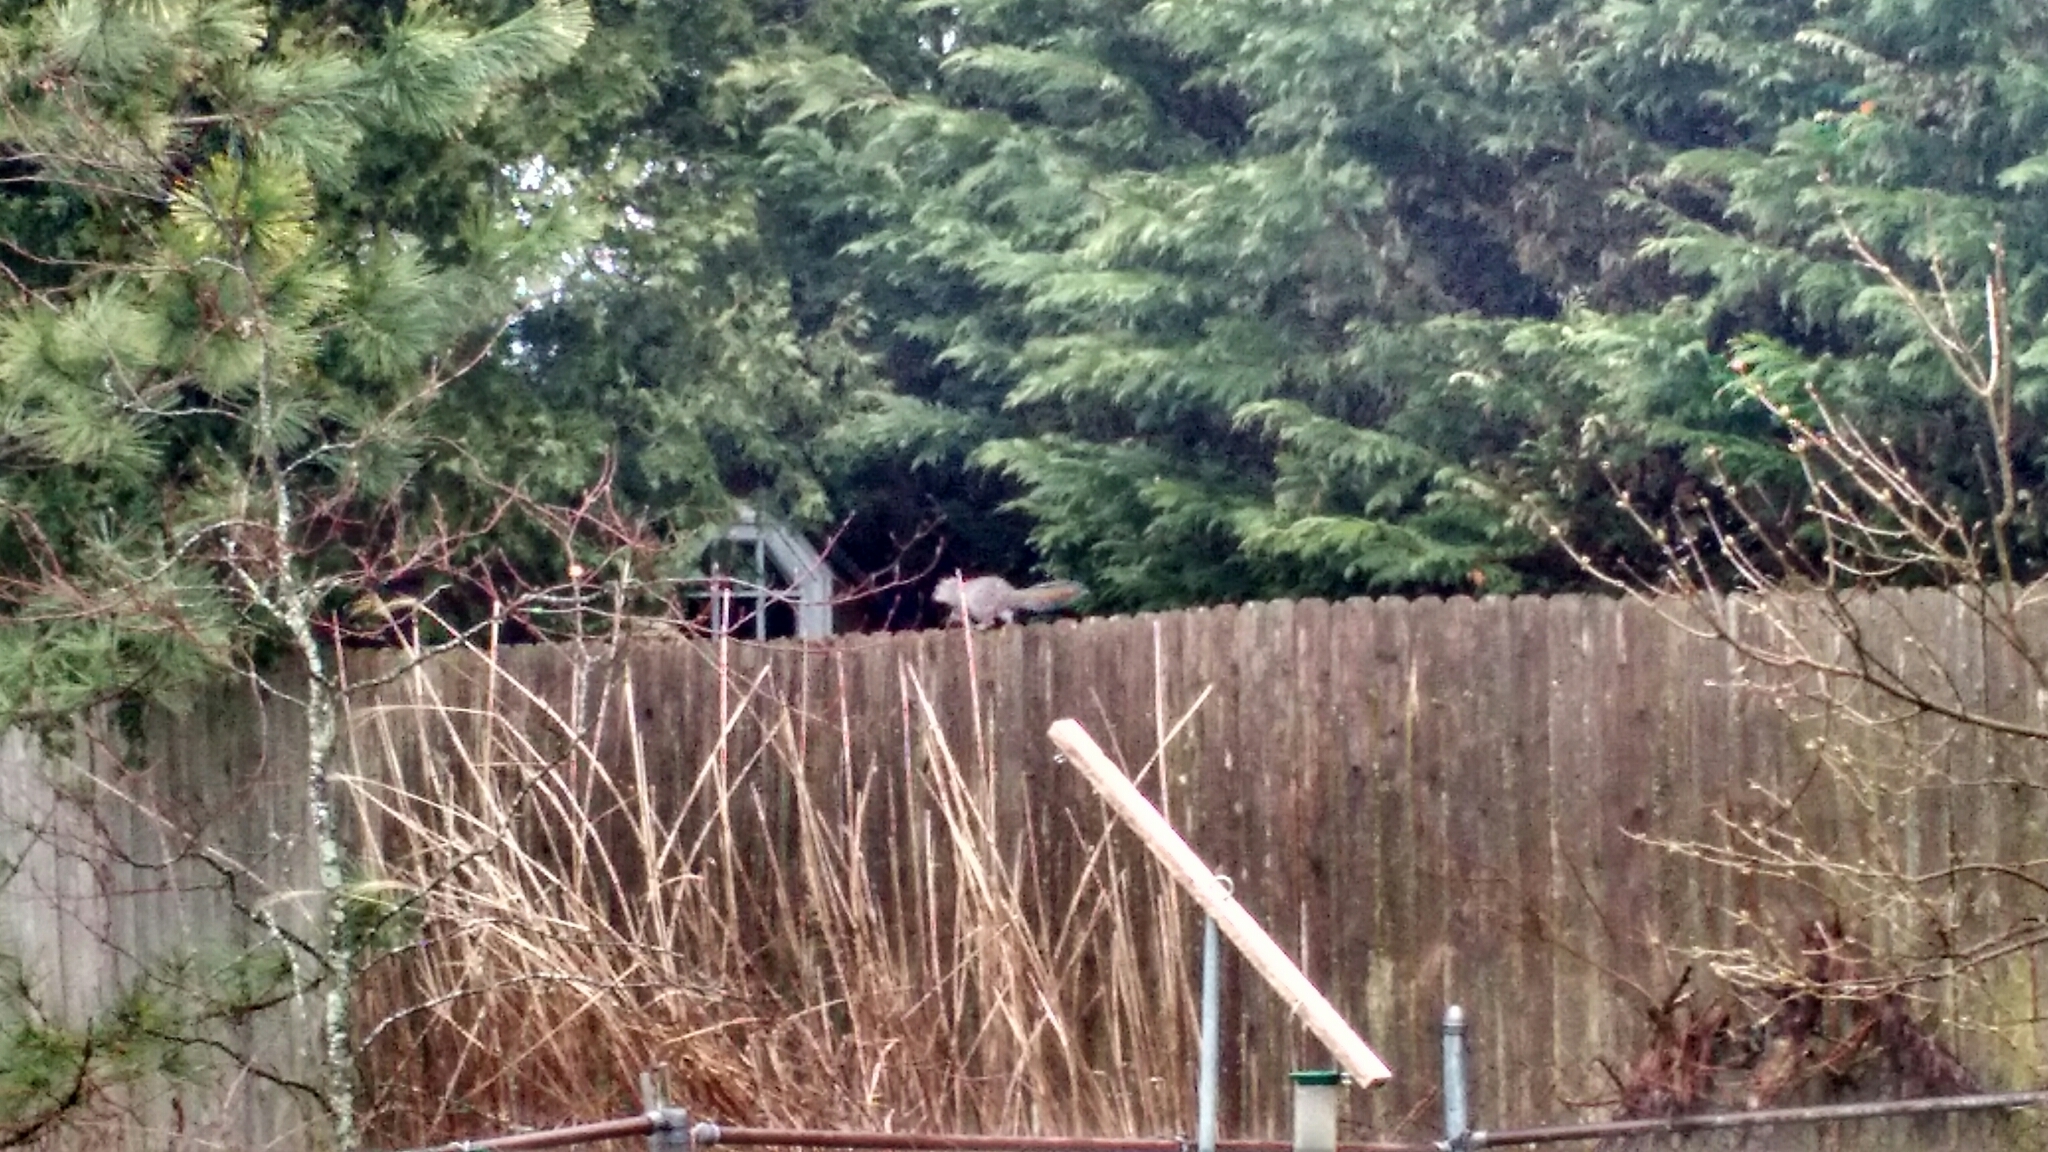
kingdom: Animalia
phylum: Chordata
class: Mammalia
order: Rodentia
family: Sciuridae
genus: Sciurus
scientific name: Sciurus carolinensis
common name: Eastern gray squirrel
